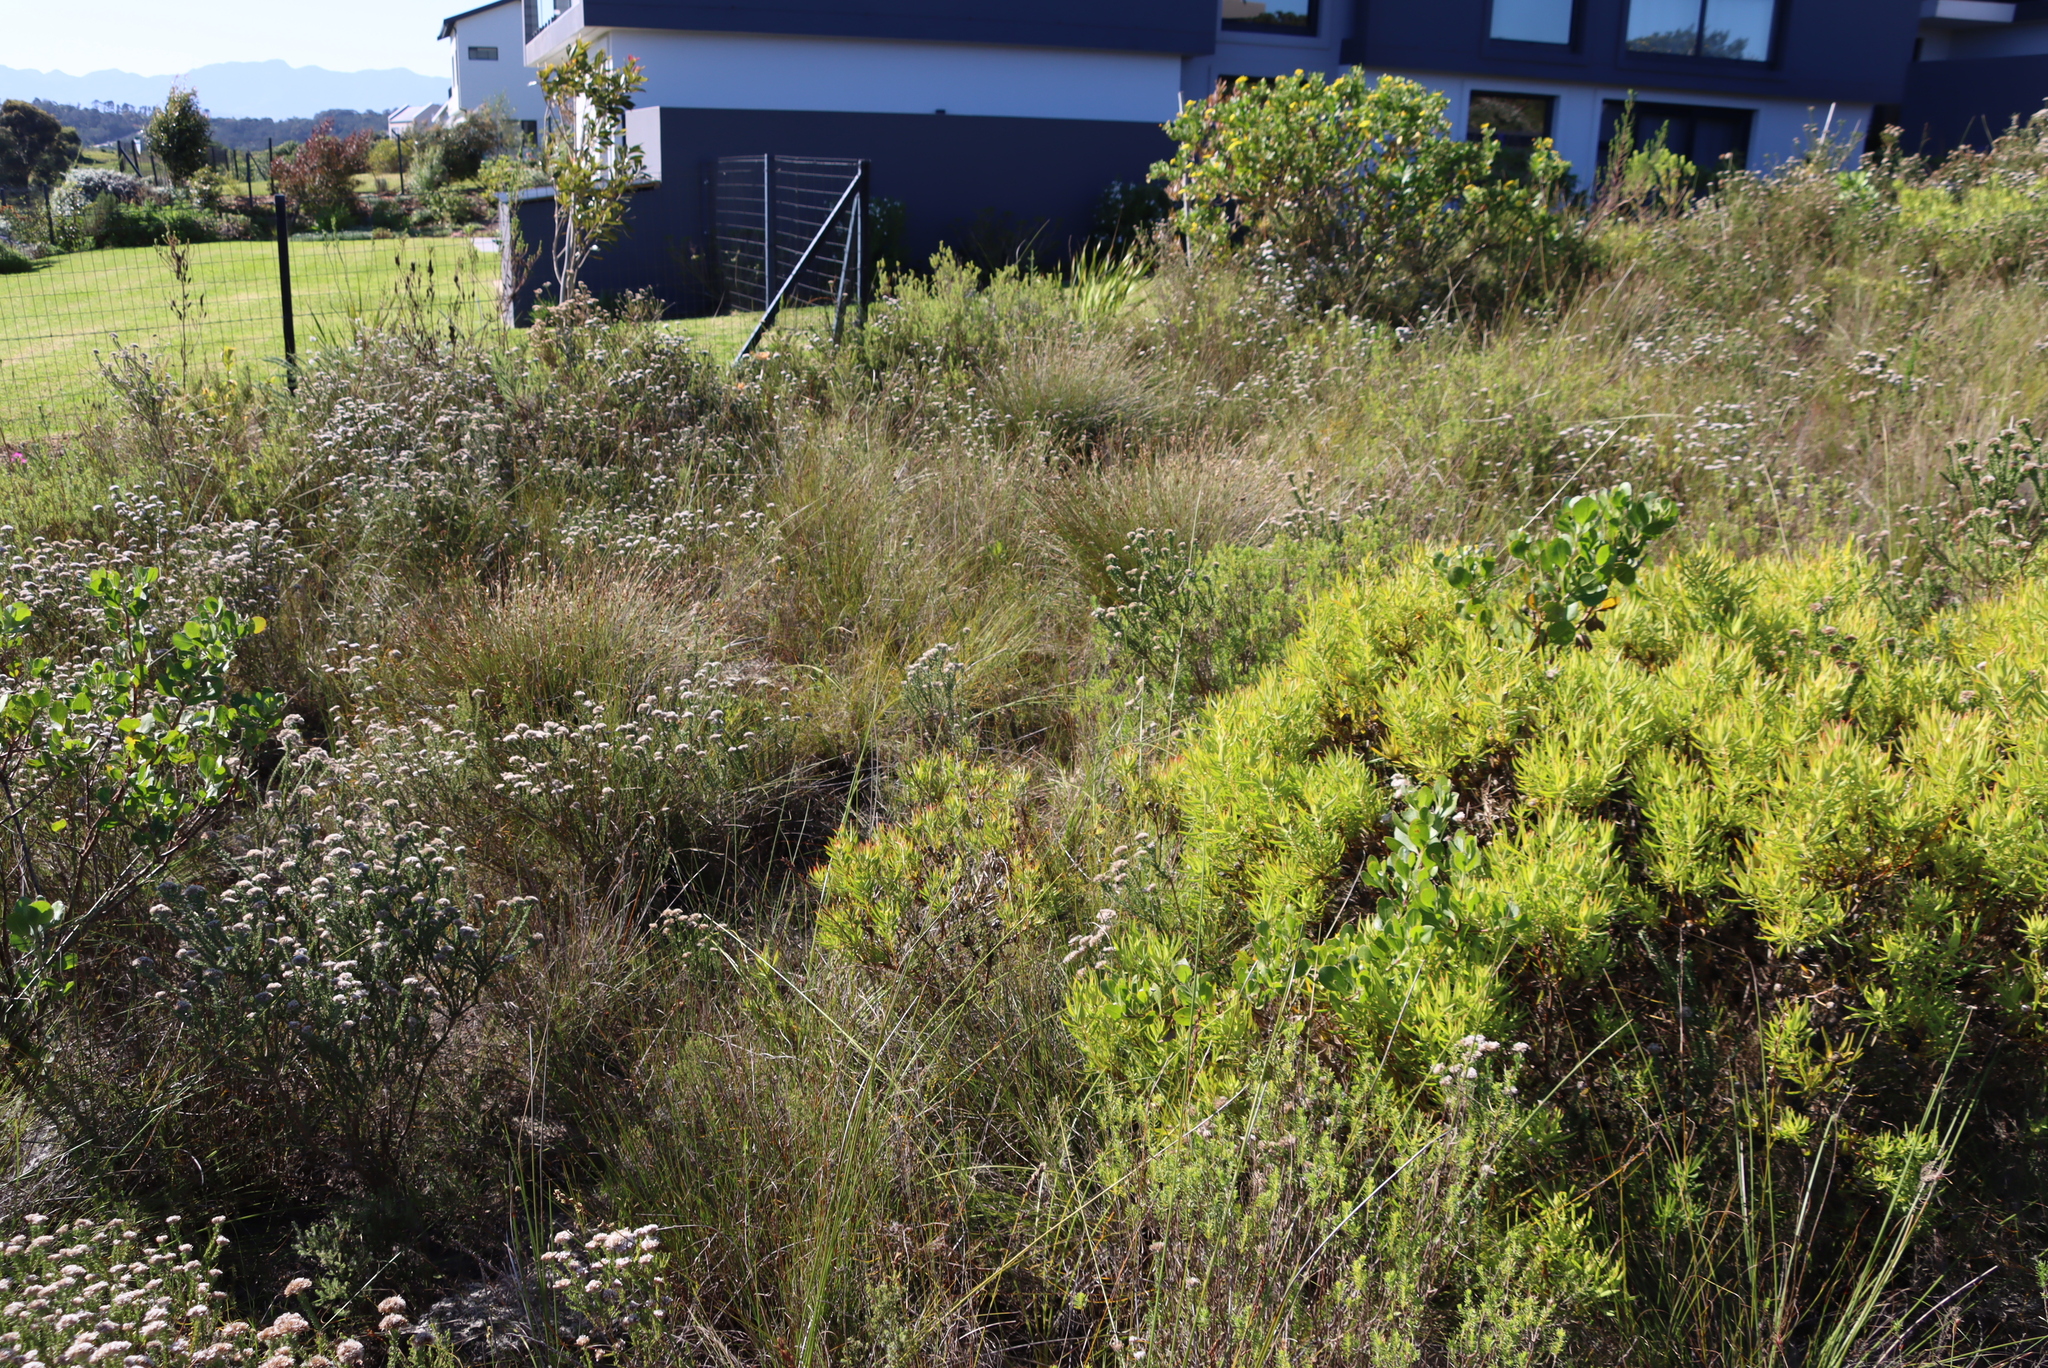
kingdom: Plantae
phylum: Tracheophyta
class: Liliopsida
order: Poales
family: Restionaceae
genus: Hypodiscus
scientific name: Hypodiscus aristatus
